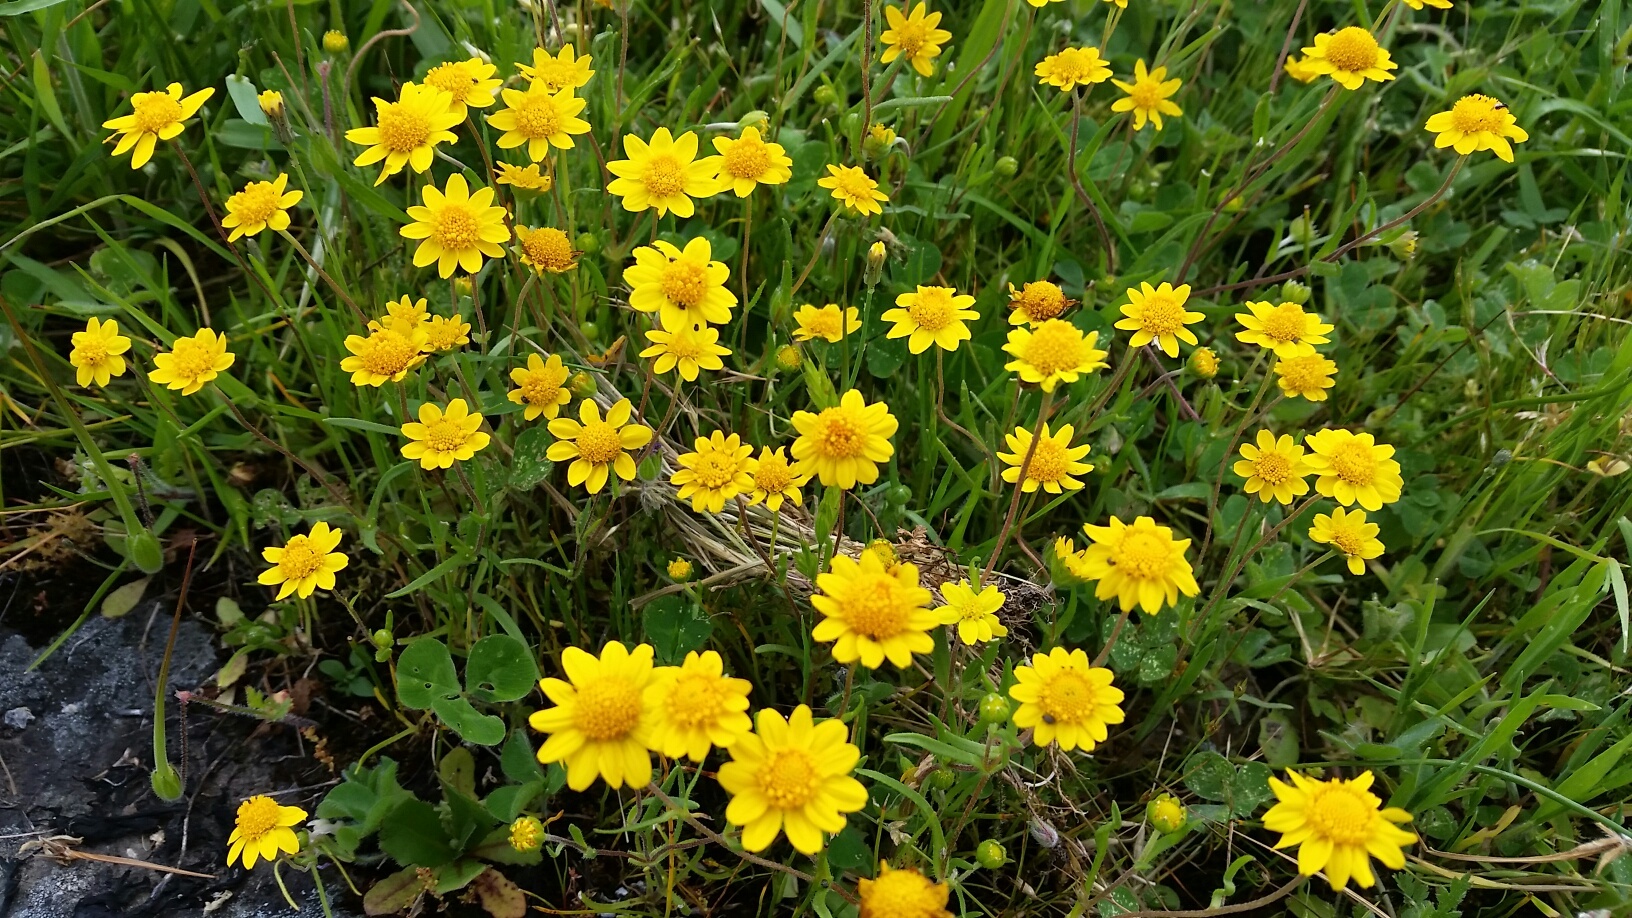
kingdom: Plantae
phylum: Tracheophyta
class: Magnoliopsida
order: Asterales
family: Asteraceae
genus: Lasthenia
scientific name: Lasthenia californica
